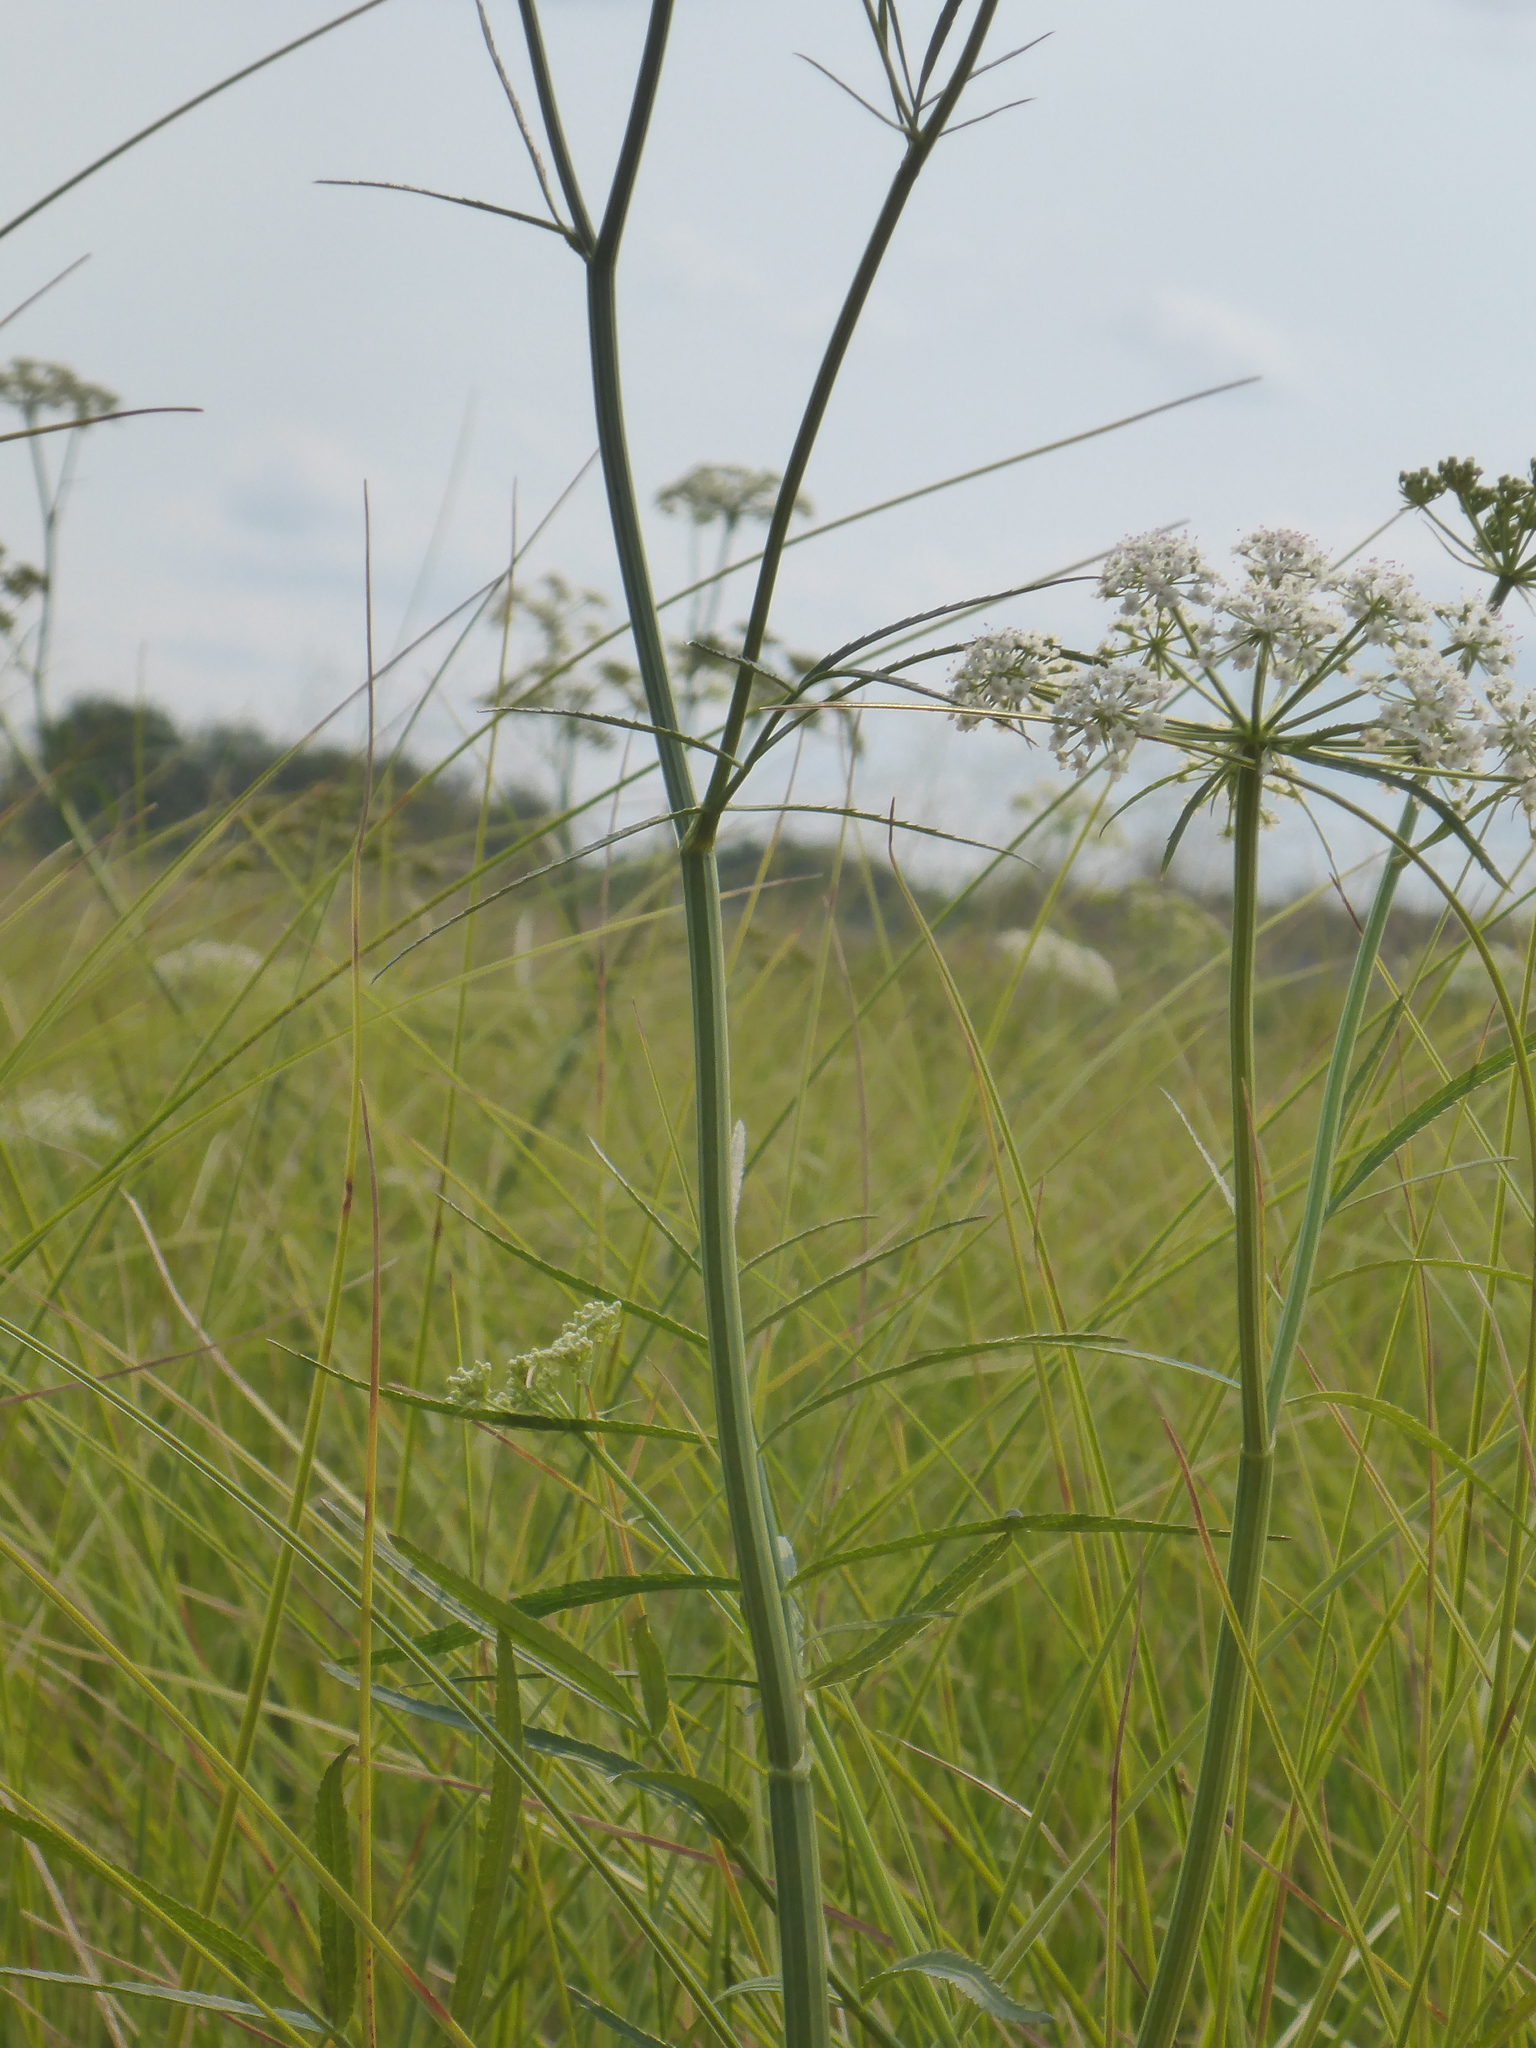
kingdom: Plantae
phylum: Tracheophyta
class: Magnoliopsida
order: Apiales
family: Apiaceae
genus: Sium
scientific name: Sium suave
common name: Hemlock water-parsnip
